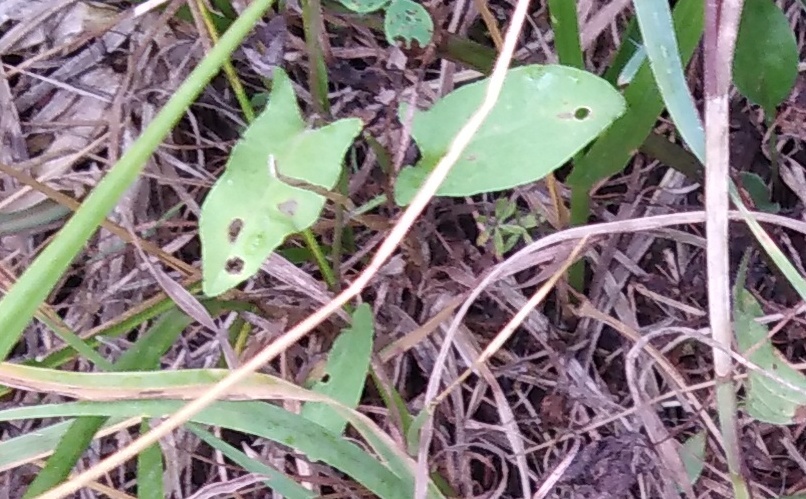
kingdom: Plantae
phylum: Tracheophyta
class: Magnoliopsida
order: Solanales
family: Convolvulaceae
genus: Convolvulus
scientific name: Convolvulus arvensis
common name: Field bindweed
